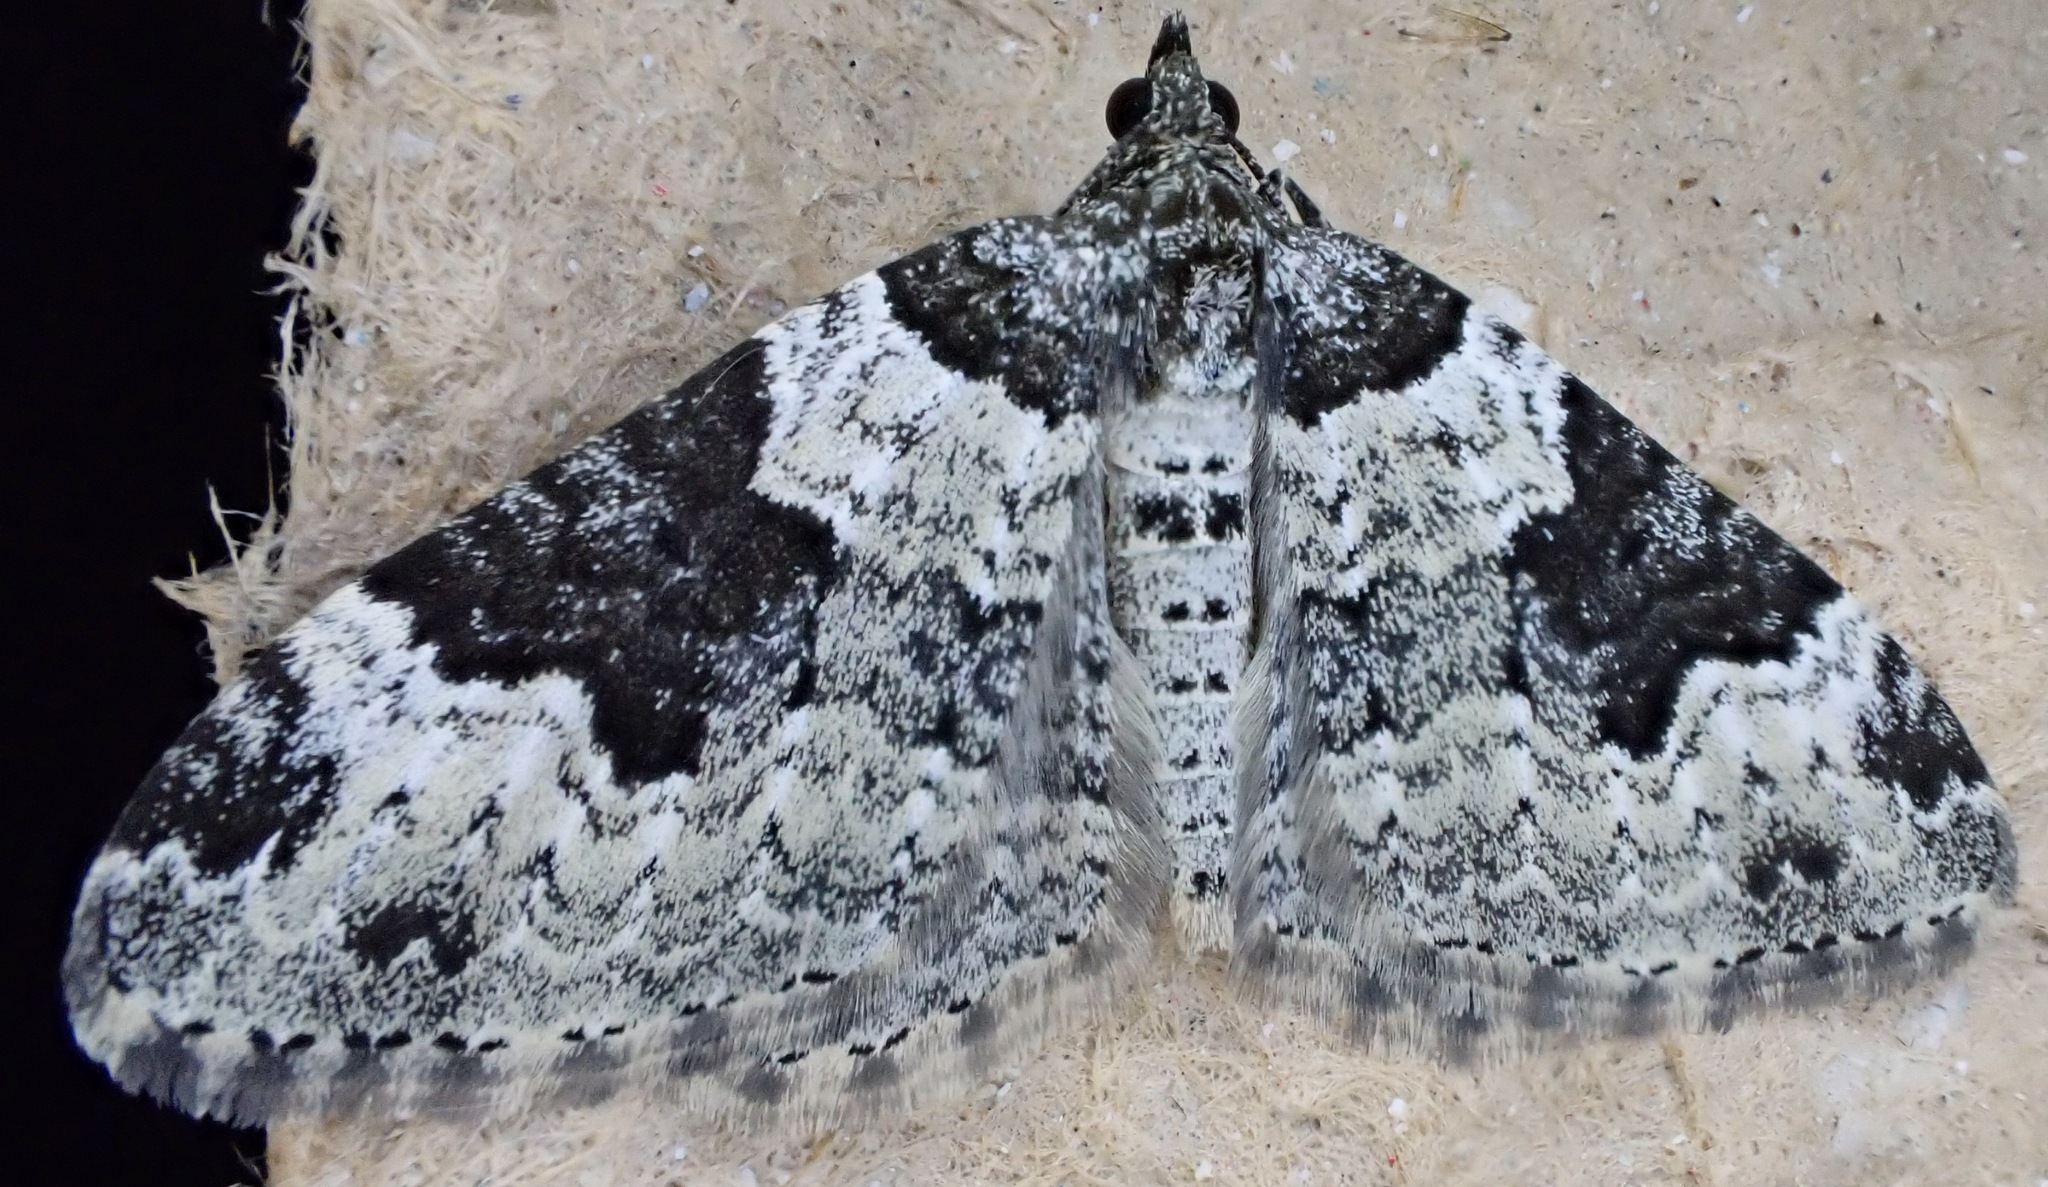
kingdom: Animalia
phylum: Arthropoda
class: Insecta
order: Lepidoptera
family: Geometridae
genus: Xanthorhoe
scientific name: Xanthorhoe fluctuata
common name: Garden carpet
